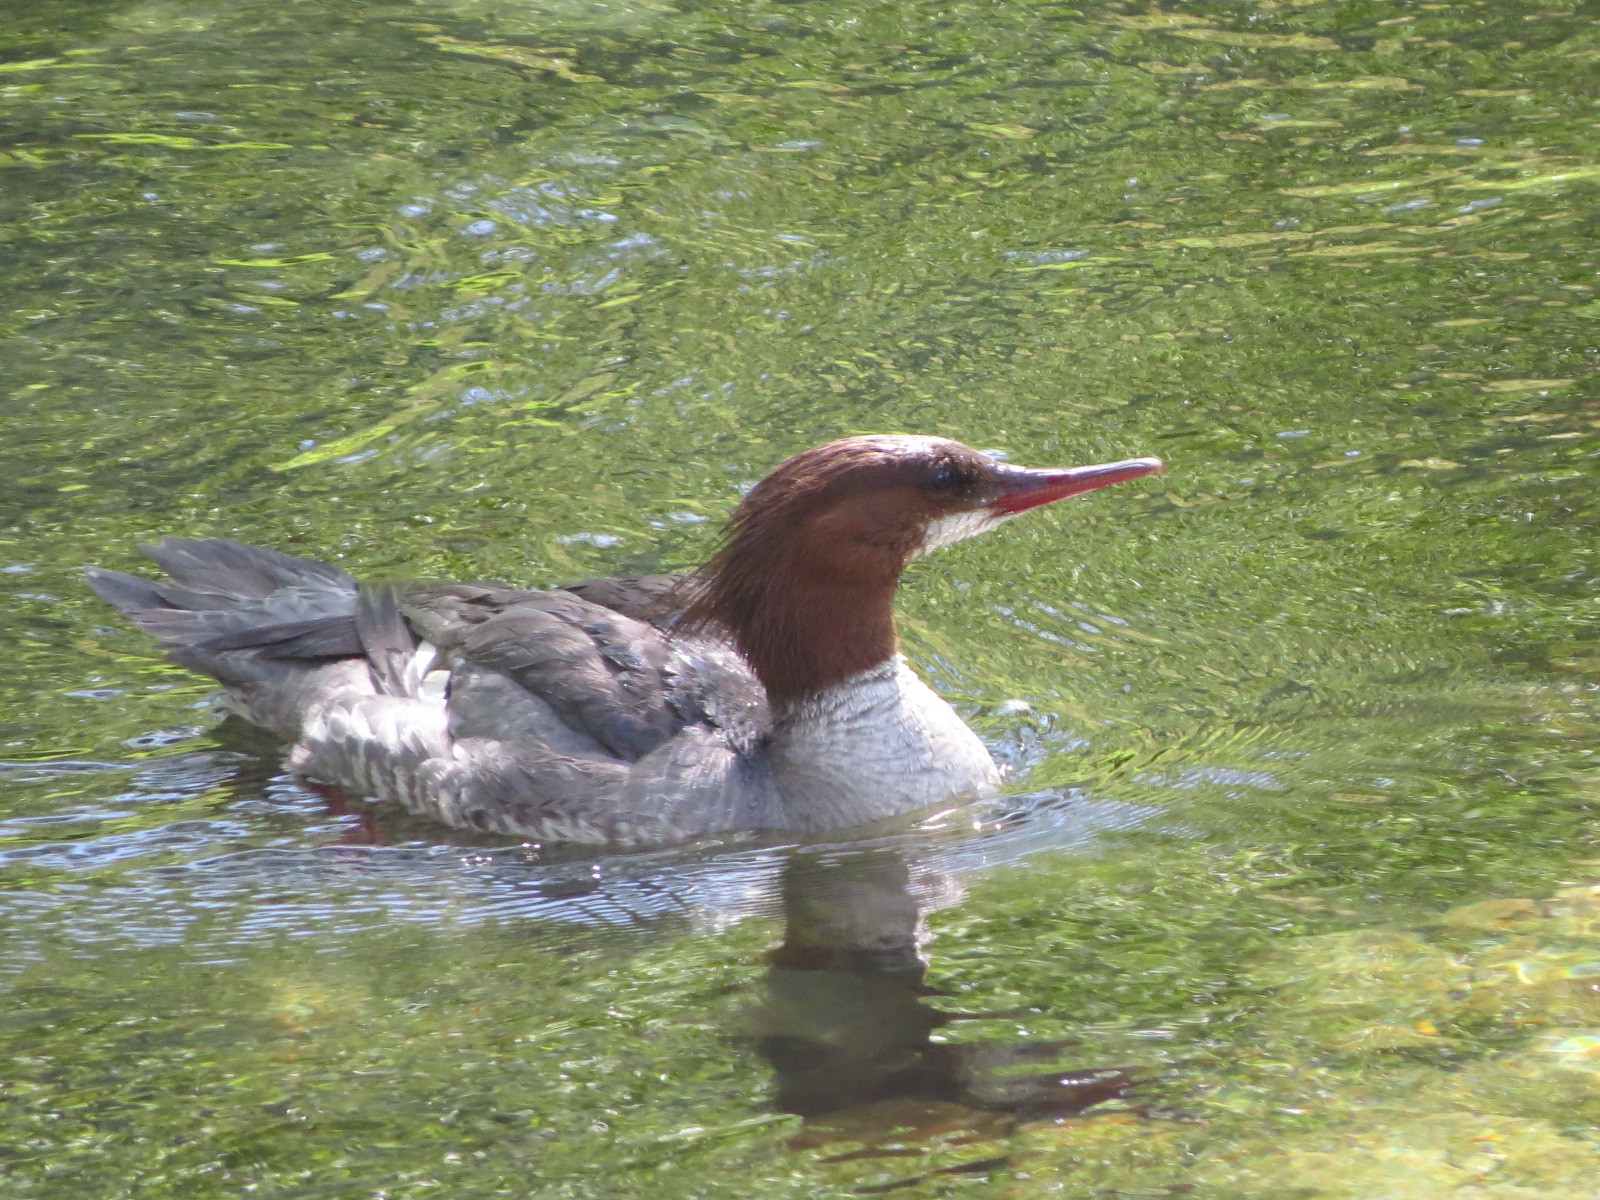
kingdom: Animalia
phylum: Chordata
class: Aves
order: Anseriformes
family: Anatidae
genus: Mergus
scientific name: Mergus merganser
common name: Common merganser
